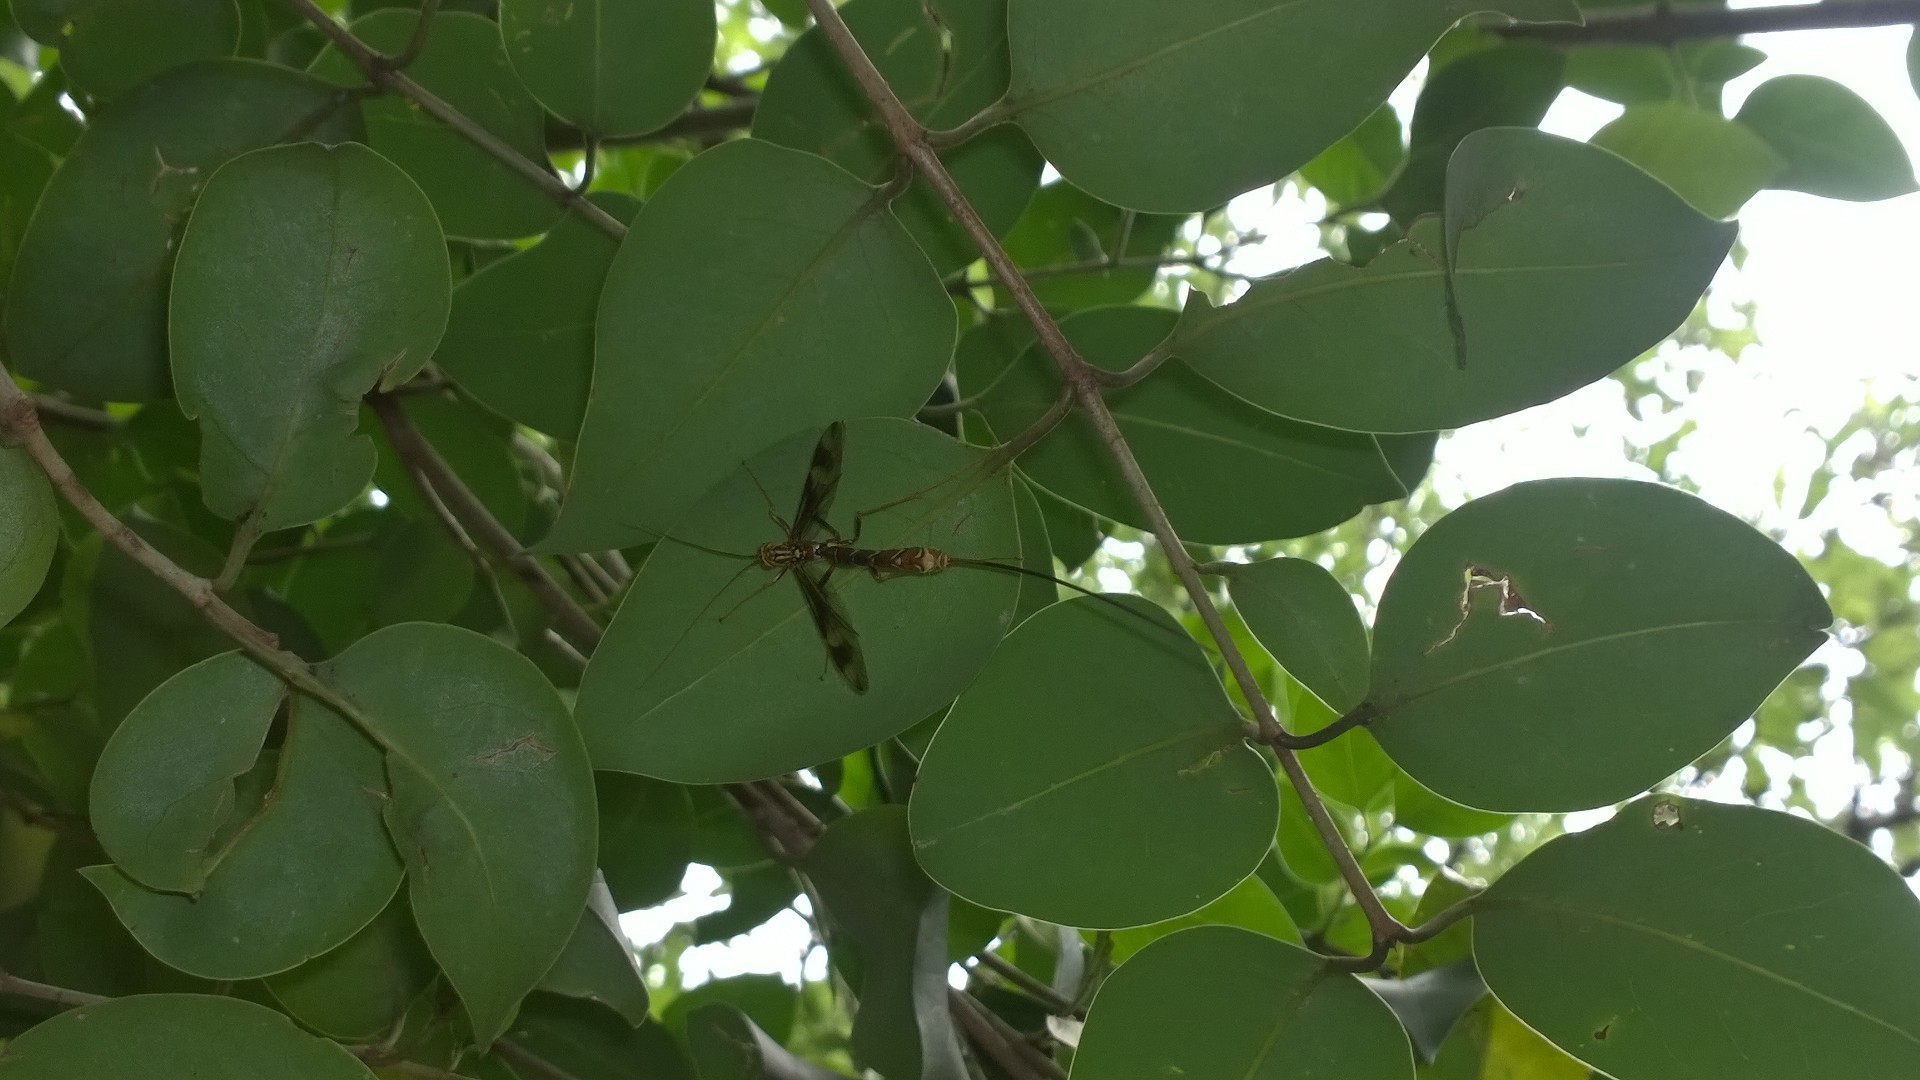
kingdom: Animalia
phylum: Arthropoda
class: Insecta
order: Hymenoptera
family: Ichneumonidae
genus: Megarhyssa
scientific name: Megarhyssa macrura
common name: Long-tailed giant ichneumonid wasp
